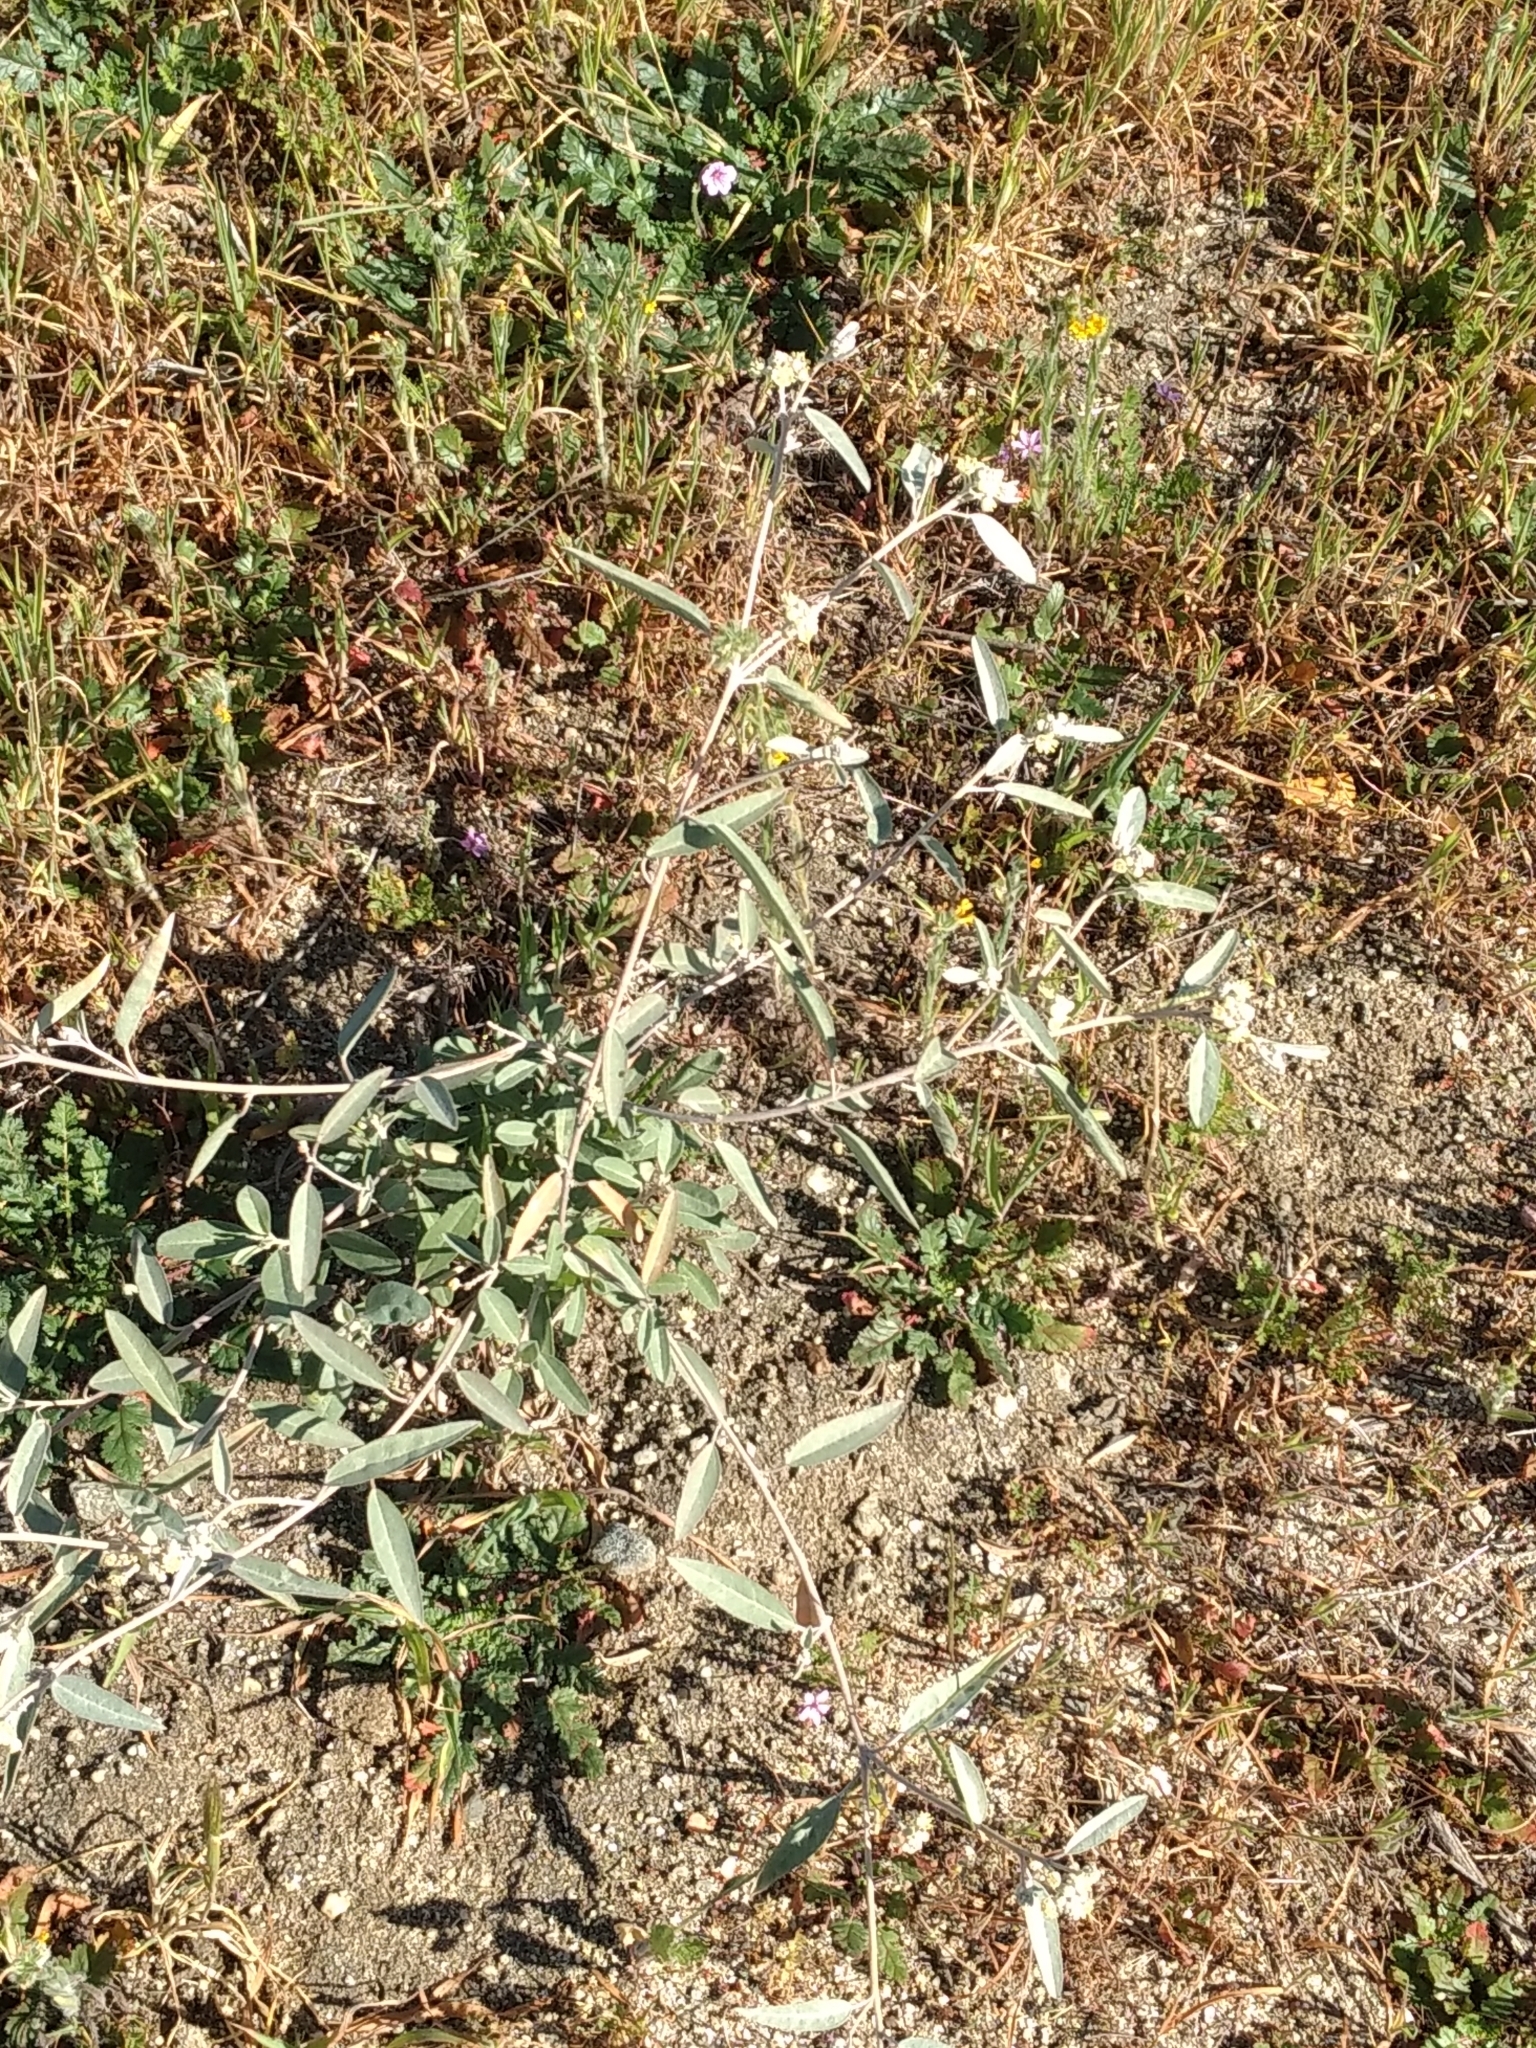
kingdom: Plantae
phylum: Tracheophyta
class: Magnoliopsida
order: Malpighiales
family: Euphorbiaceae
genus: Croton
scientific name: Croton californicus
